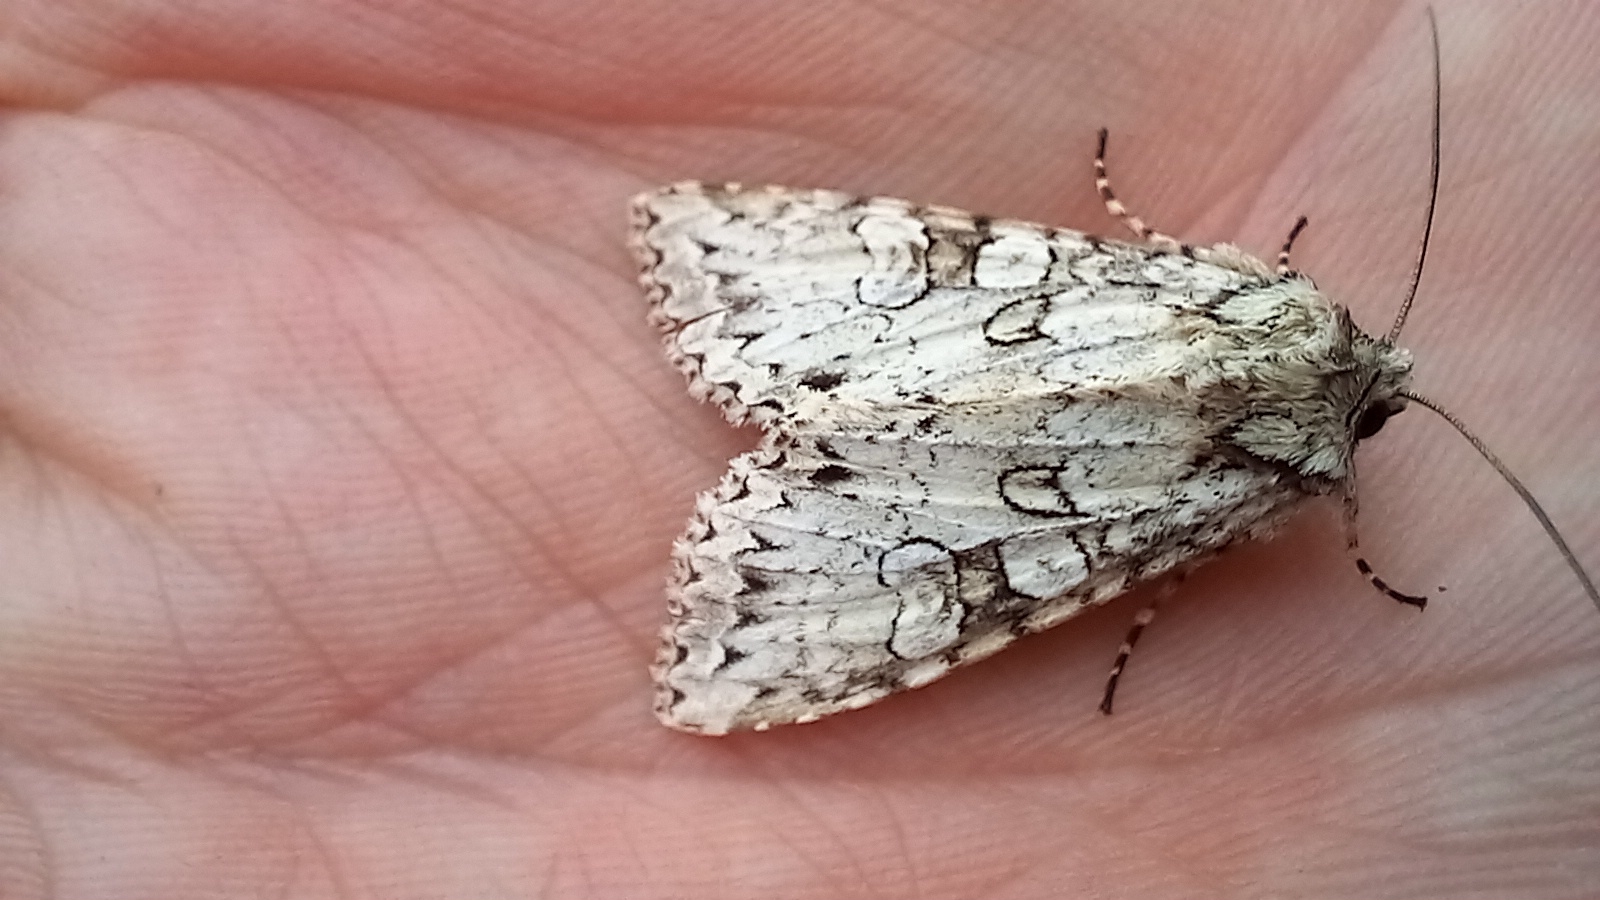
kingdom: Animalia
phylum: Arthropoda
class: Insecta
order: Lepidoptera
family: Noctuidae
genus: Polia
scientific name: Polia nebulosa
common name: Grey arches
